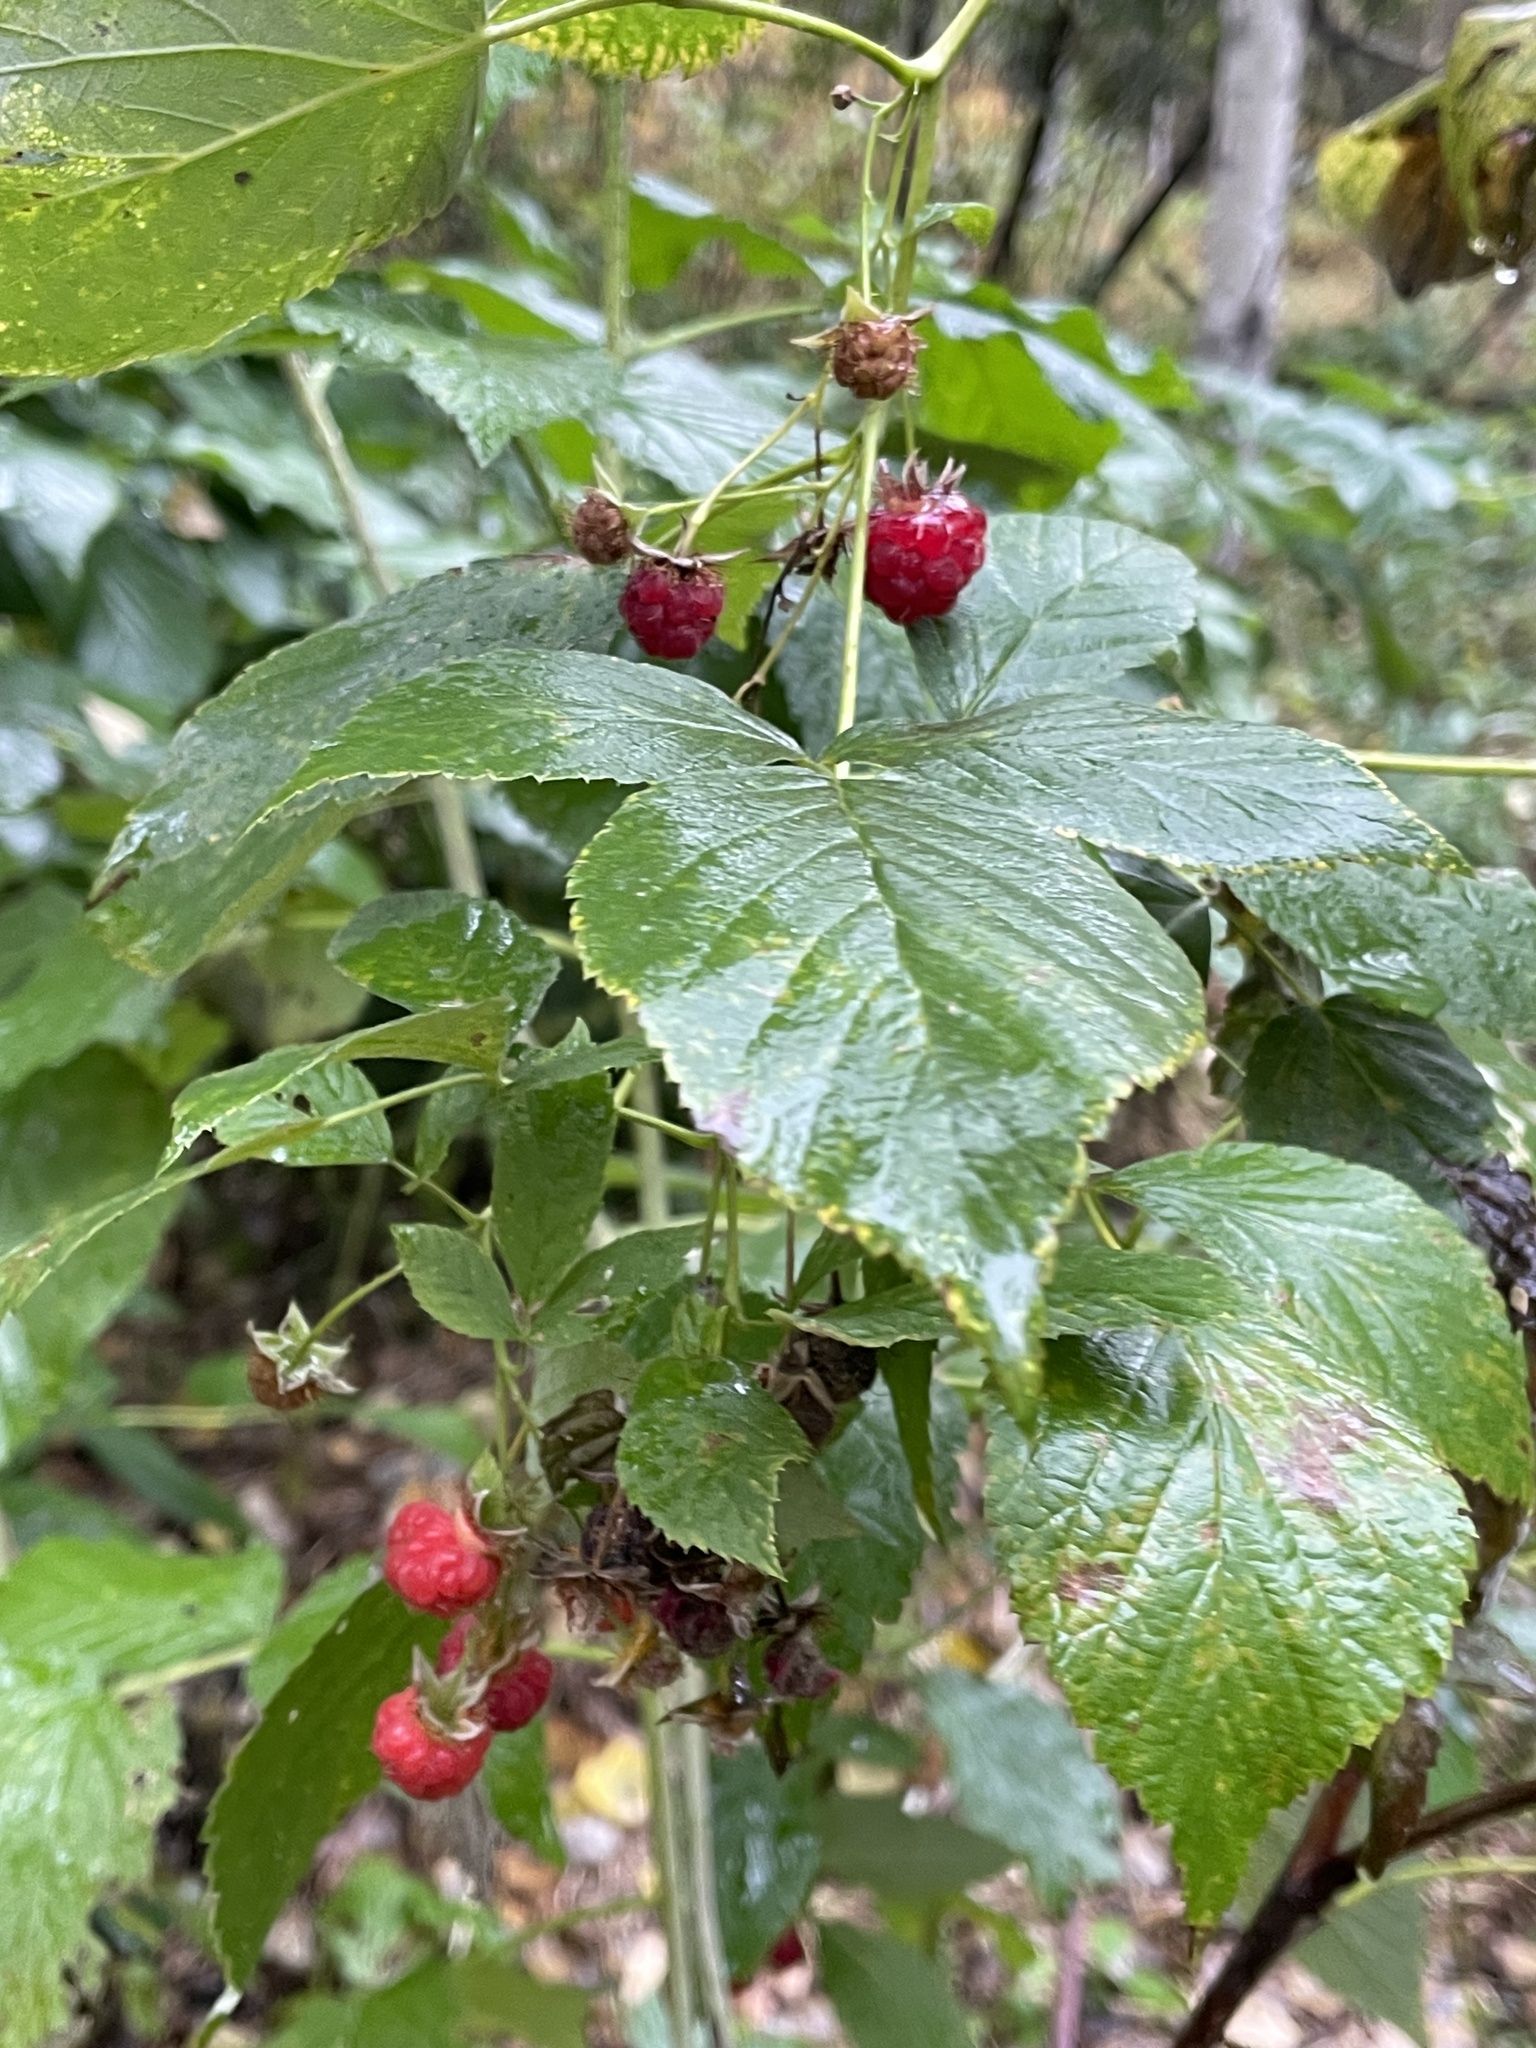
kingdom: Plantae
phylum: Tracheophyta
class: Magnoliopsida
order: Rosales
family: Rosaceae
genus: Rubus
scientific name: Rubus idaeus
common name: Raspberry
